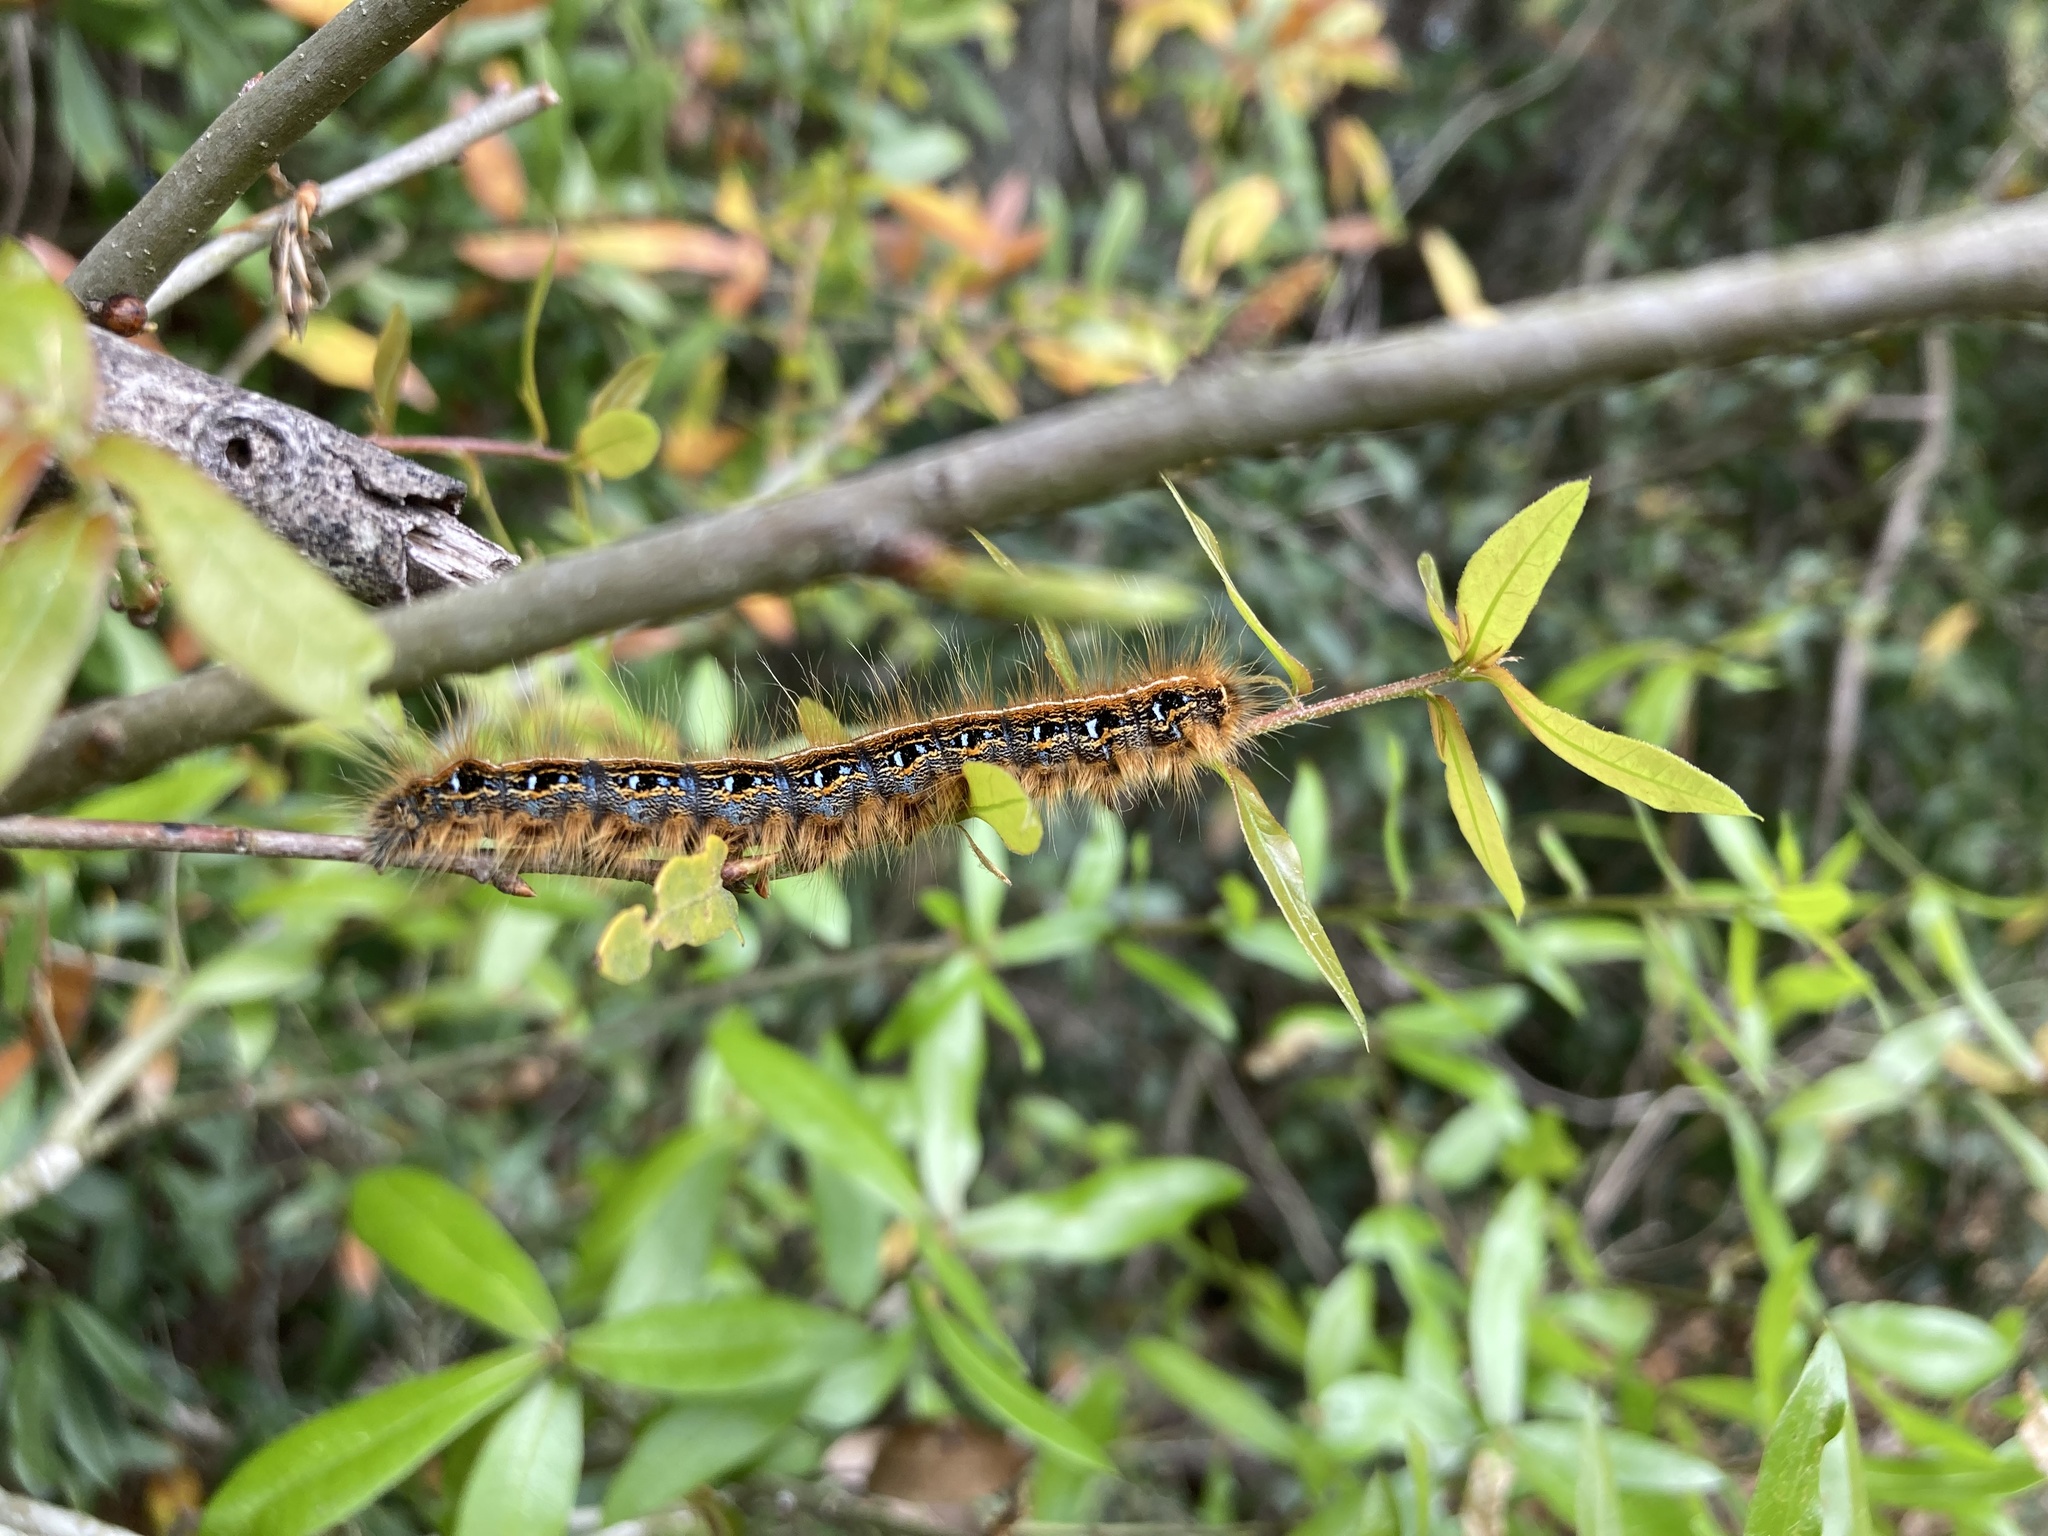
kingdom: Animalia
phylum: Arthropoda
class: Insecta
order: Lepidoptera
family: Lasiocampidae
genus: Malacosoma
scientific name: Malacosoma americana
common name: Eastern tent caterpillar moth
